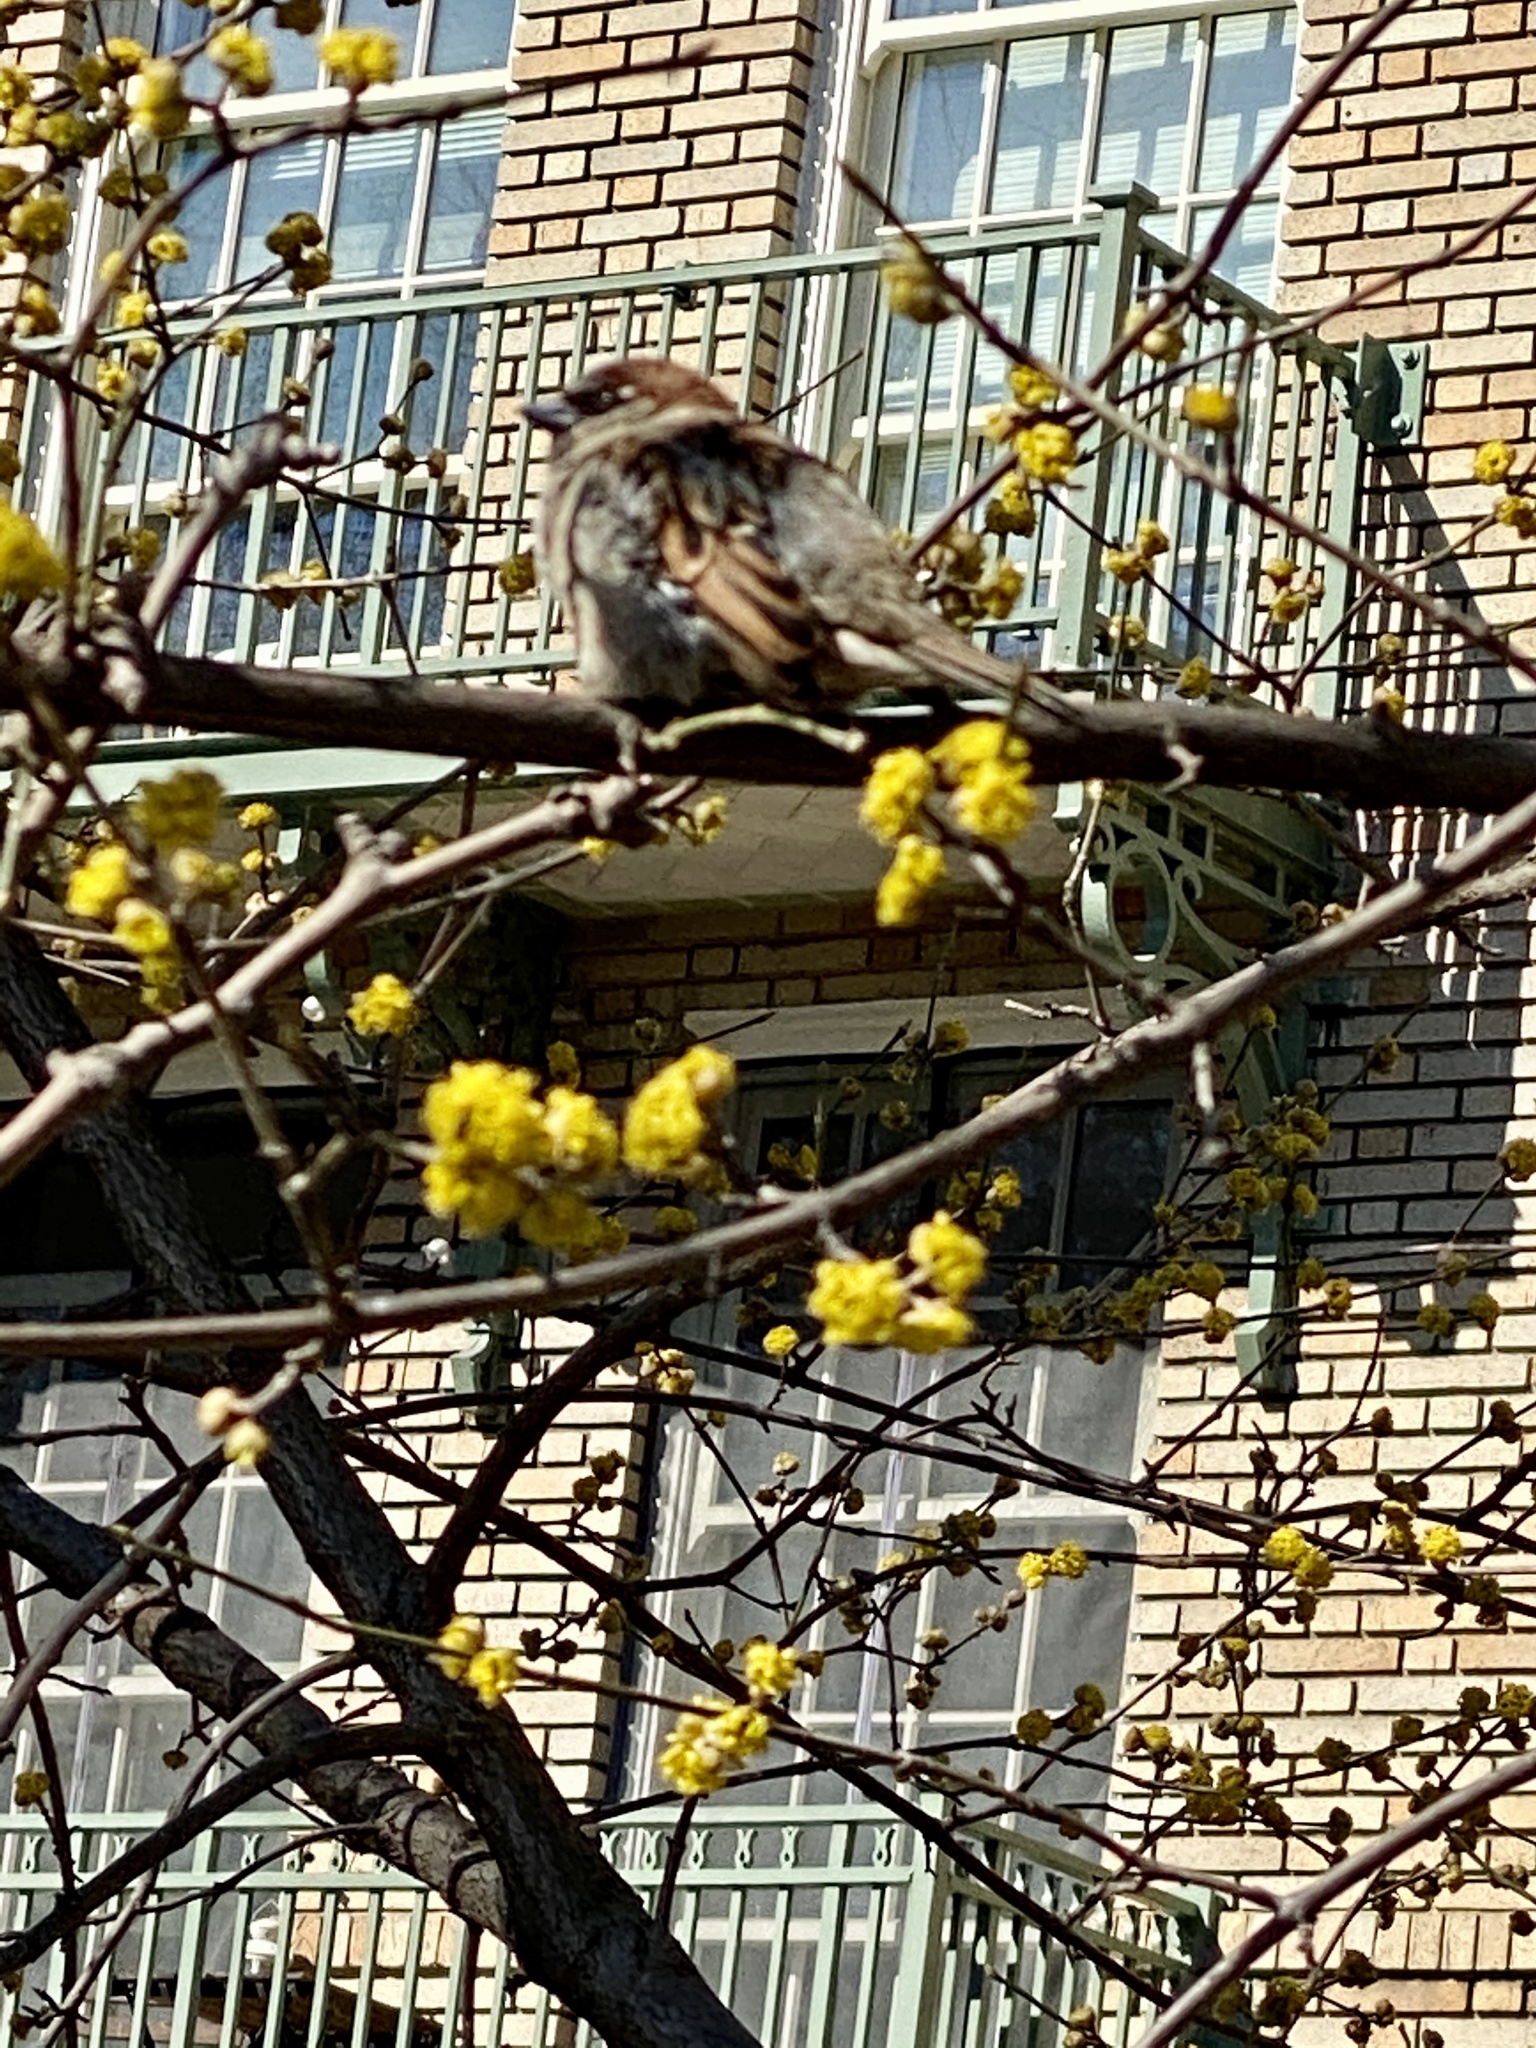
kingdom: Animalia
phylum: Chordata
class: Aves
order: Passeriformes
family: Passeridae
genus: Passer
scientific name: Passer domesticus
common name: House sparrow
